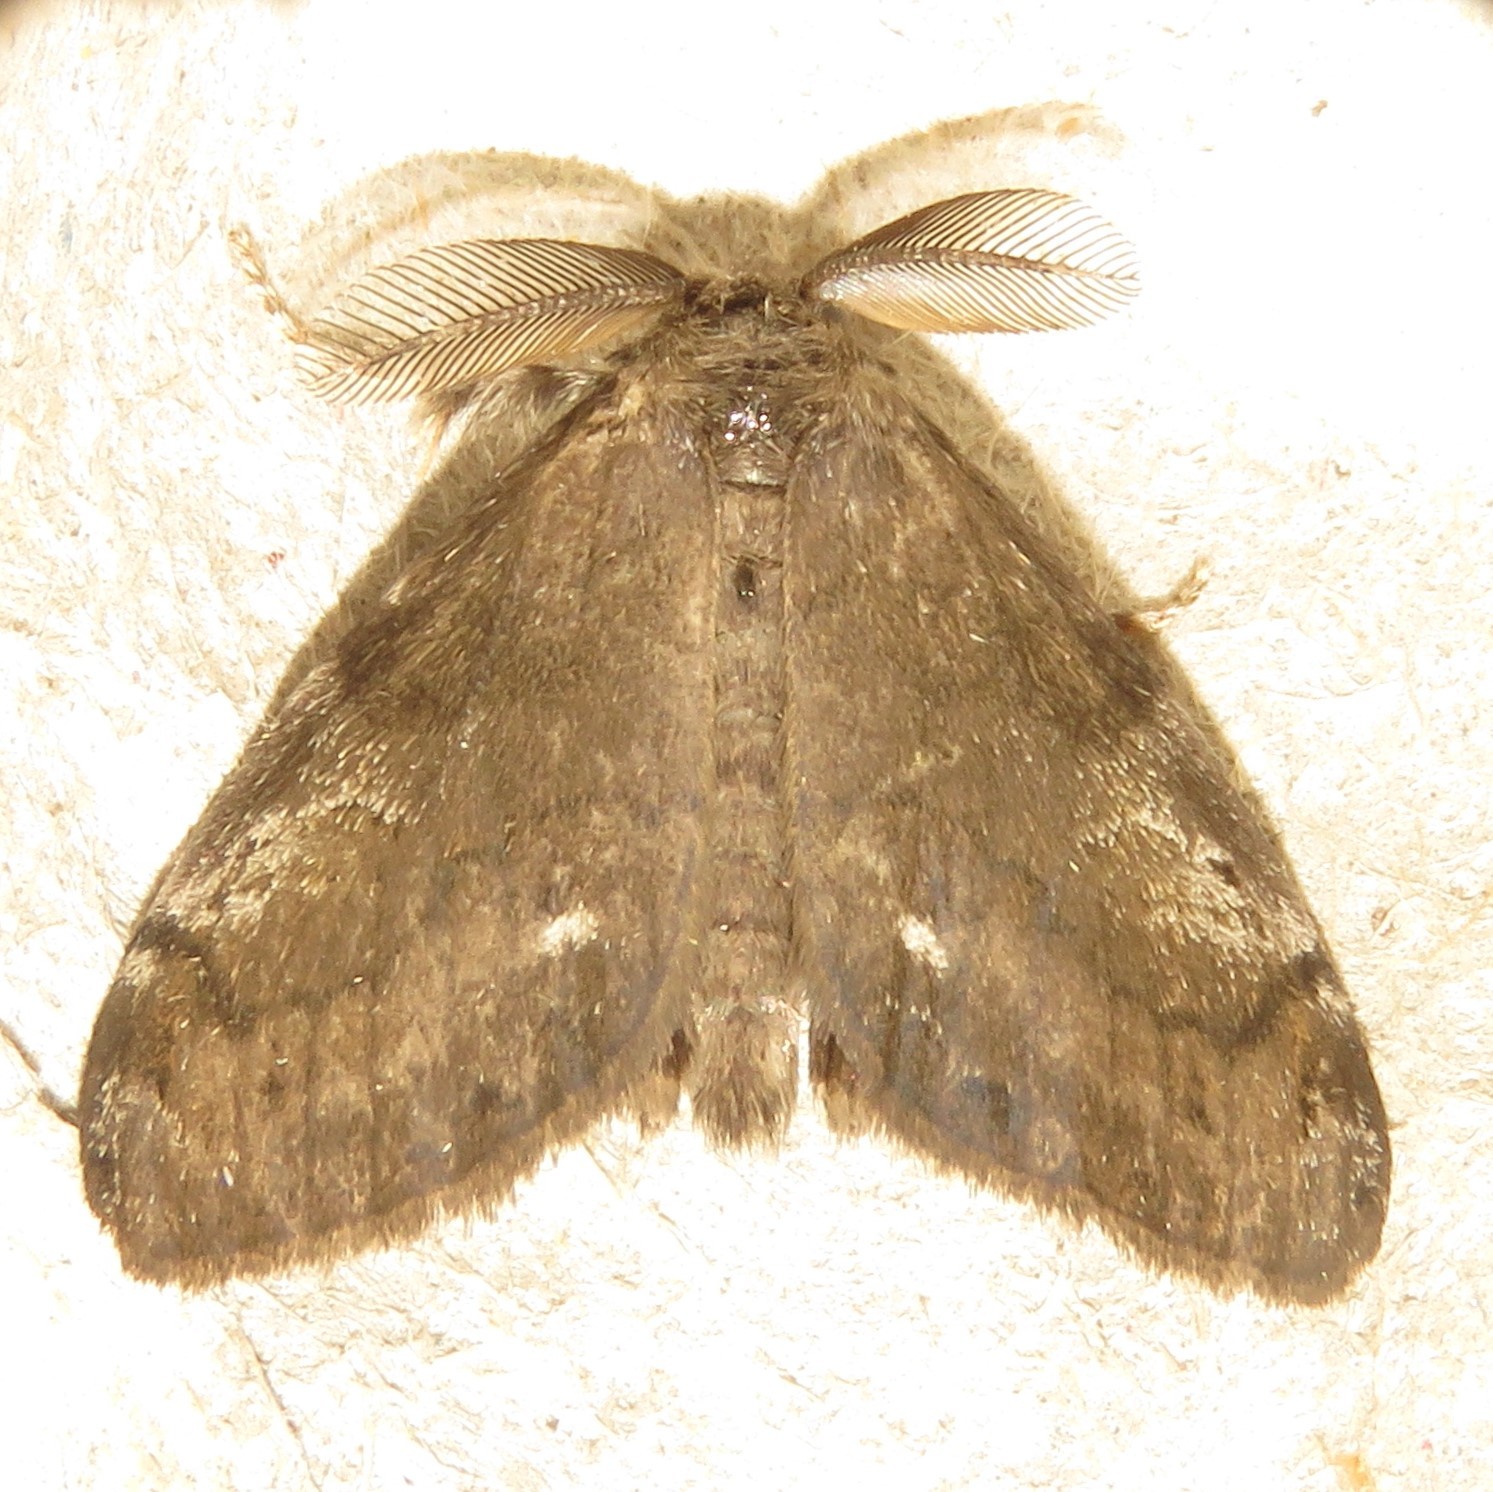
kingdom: Animalia
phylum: Arthropoda
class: Insecta
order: Lepidoptera
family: Erebidae
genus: Orgyia
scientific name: Orgyia leucostigma
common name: White-marked tussock moth
